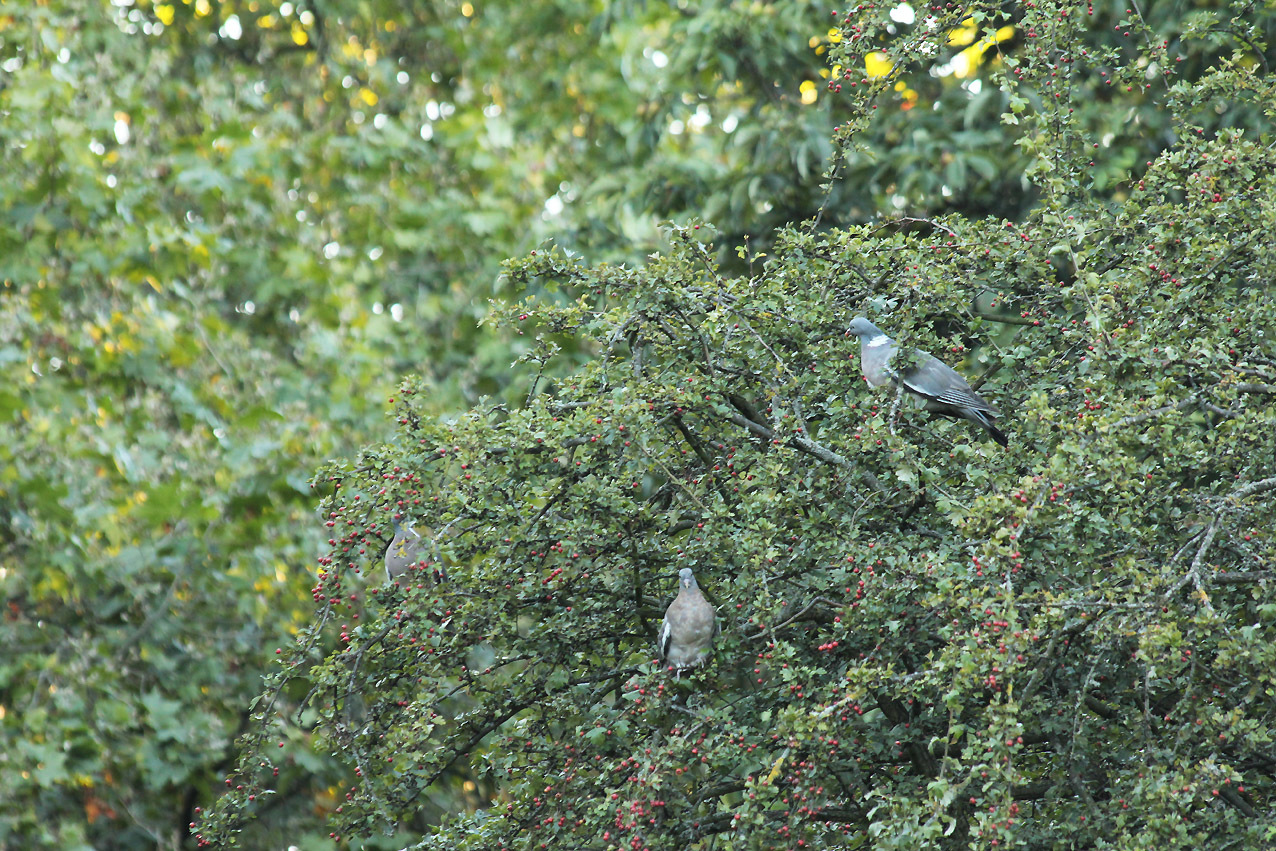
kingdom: Animalia
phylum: Chordata
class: Aves
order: Columbiformes
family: Columbidae
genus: Columba
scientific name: Columba palumbus
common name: Common wood pigeon
